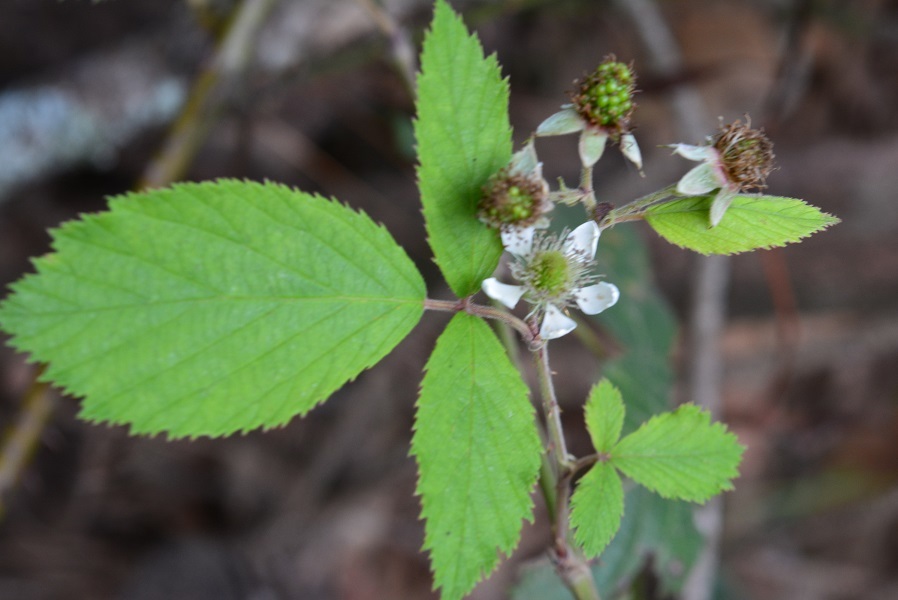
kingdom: Plantae
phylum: Tracheophyta
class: Magnoliopsida
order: Rosales
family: Rosaceae
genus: Rubus
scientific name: Rubus coriifolius
